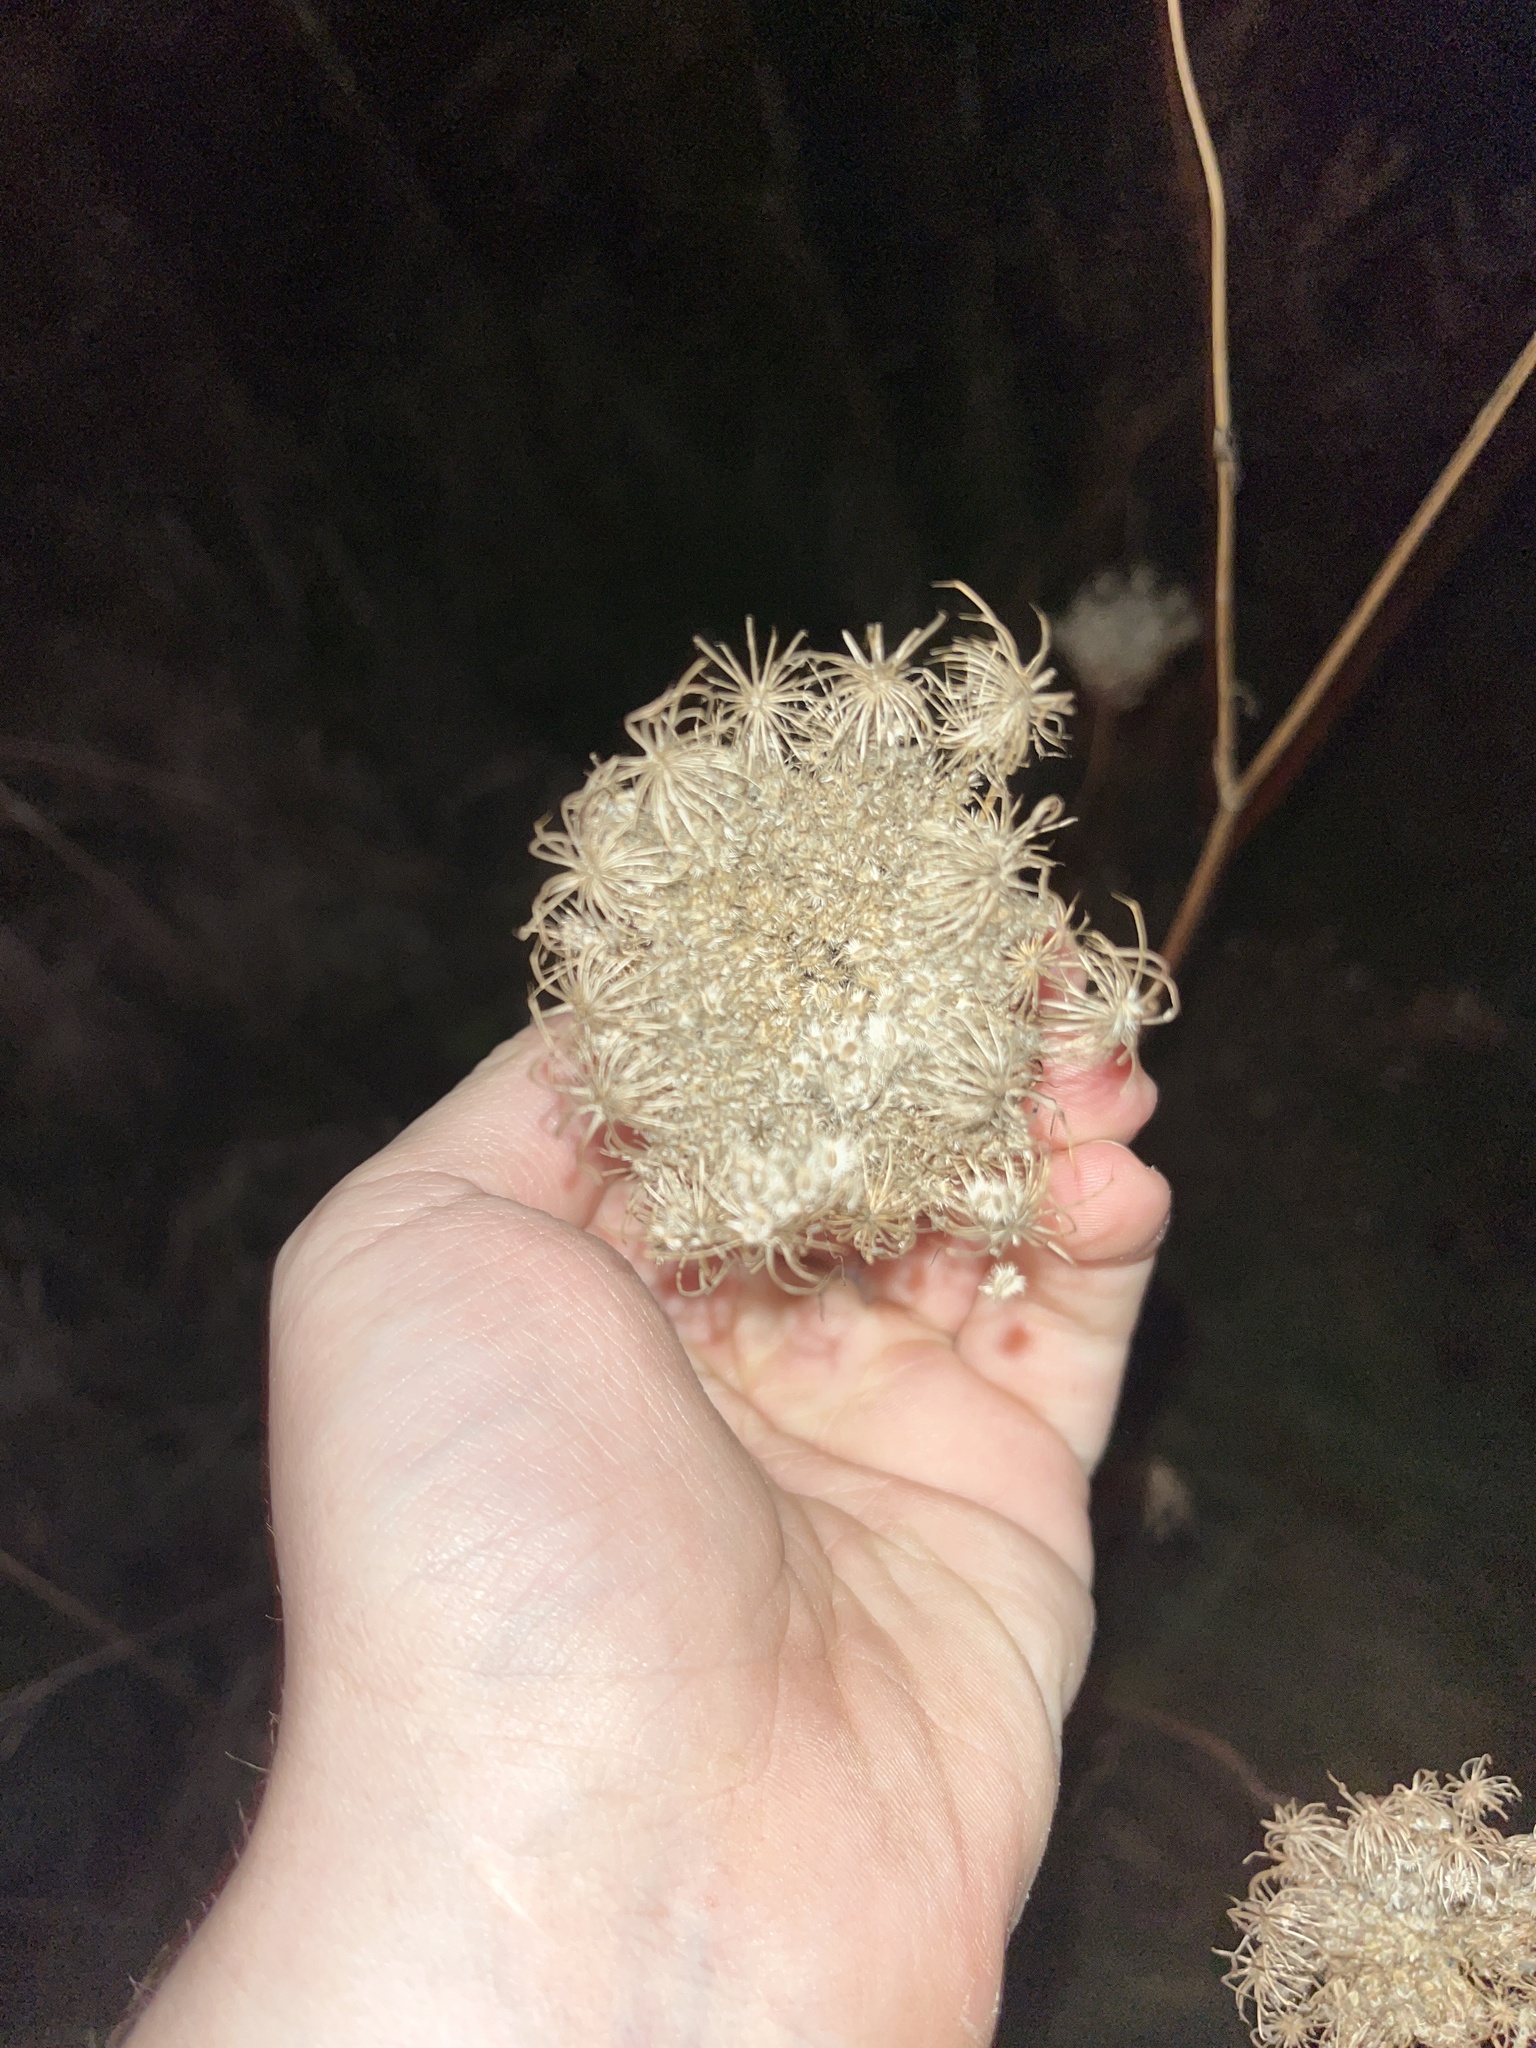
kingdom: Plantae
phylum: Tracheophyta
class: Magnoliopsida
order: Apiales
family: Apiaceae
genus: Daucus
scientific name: Daucus carota
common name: Wild carrot
